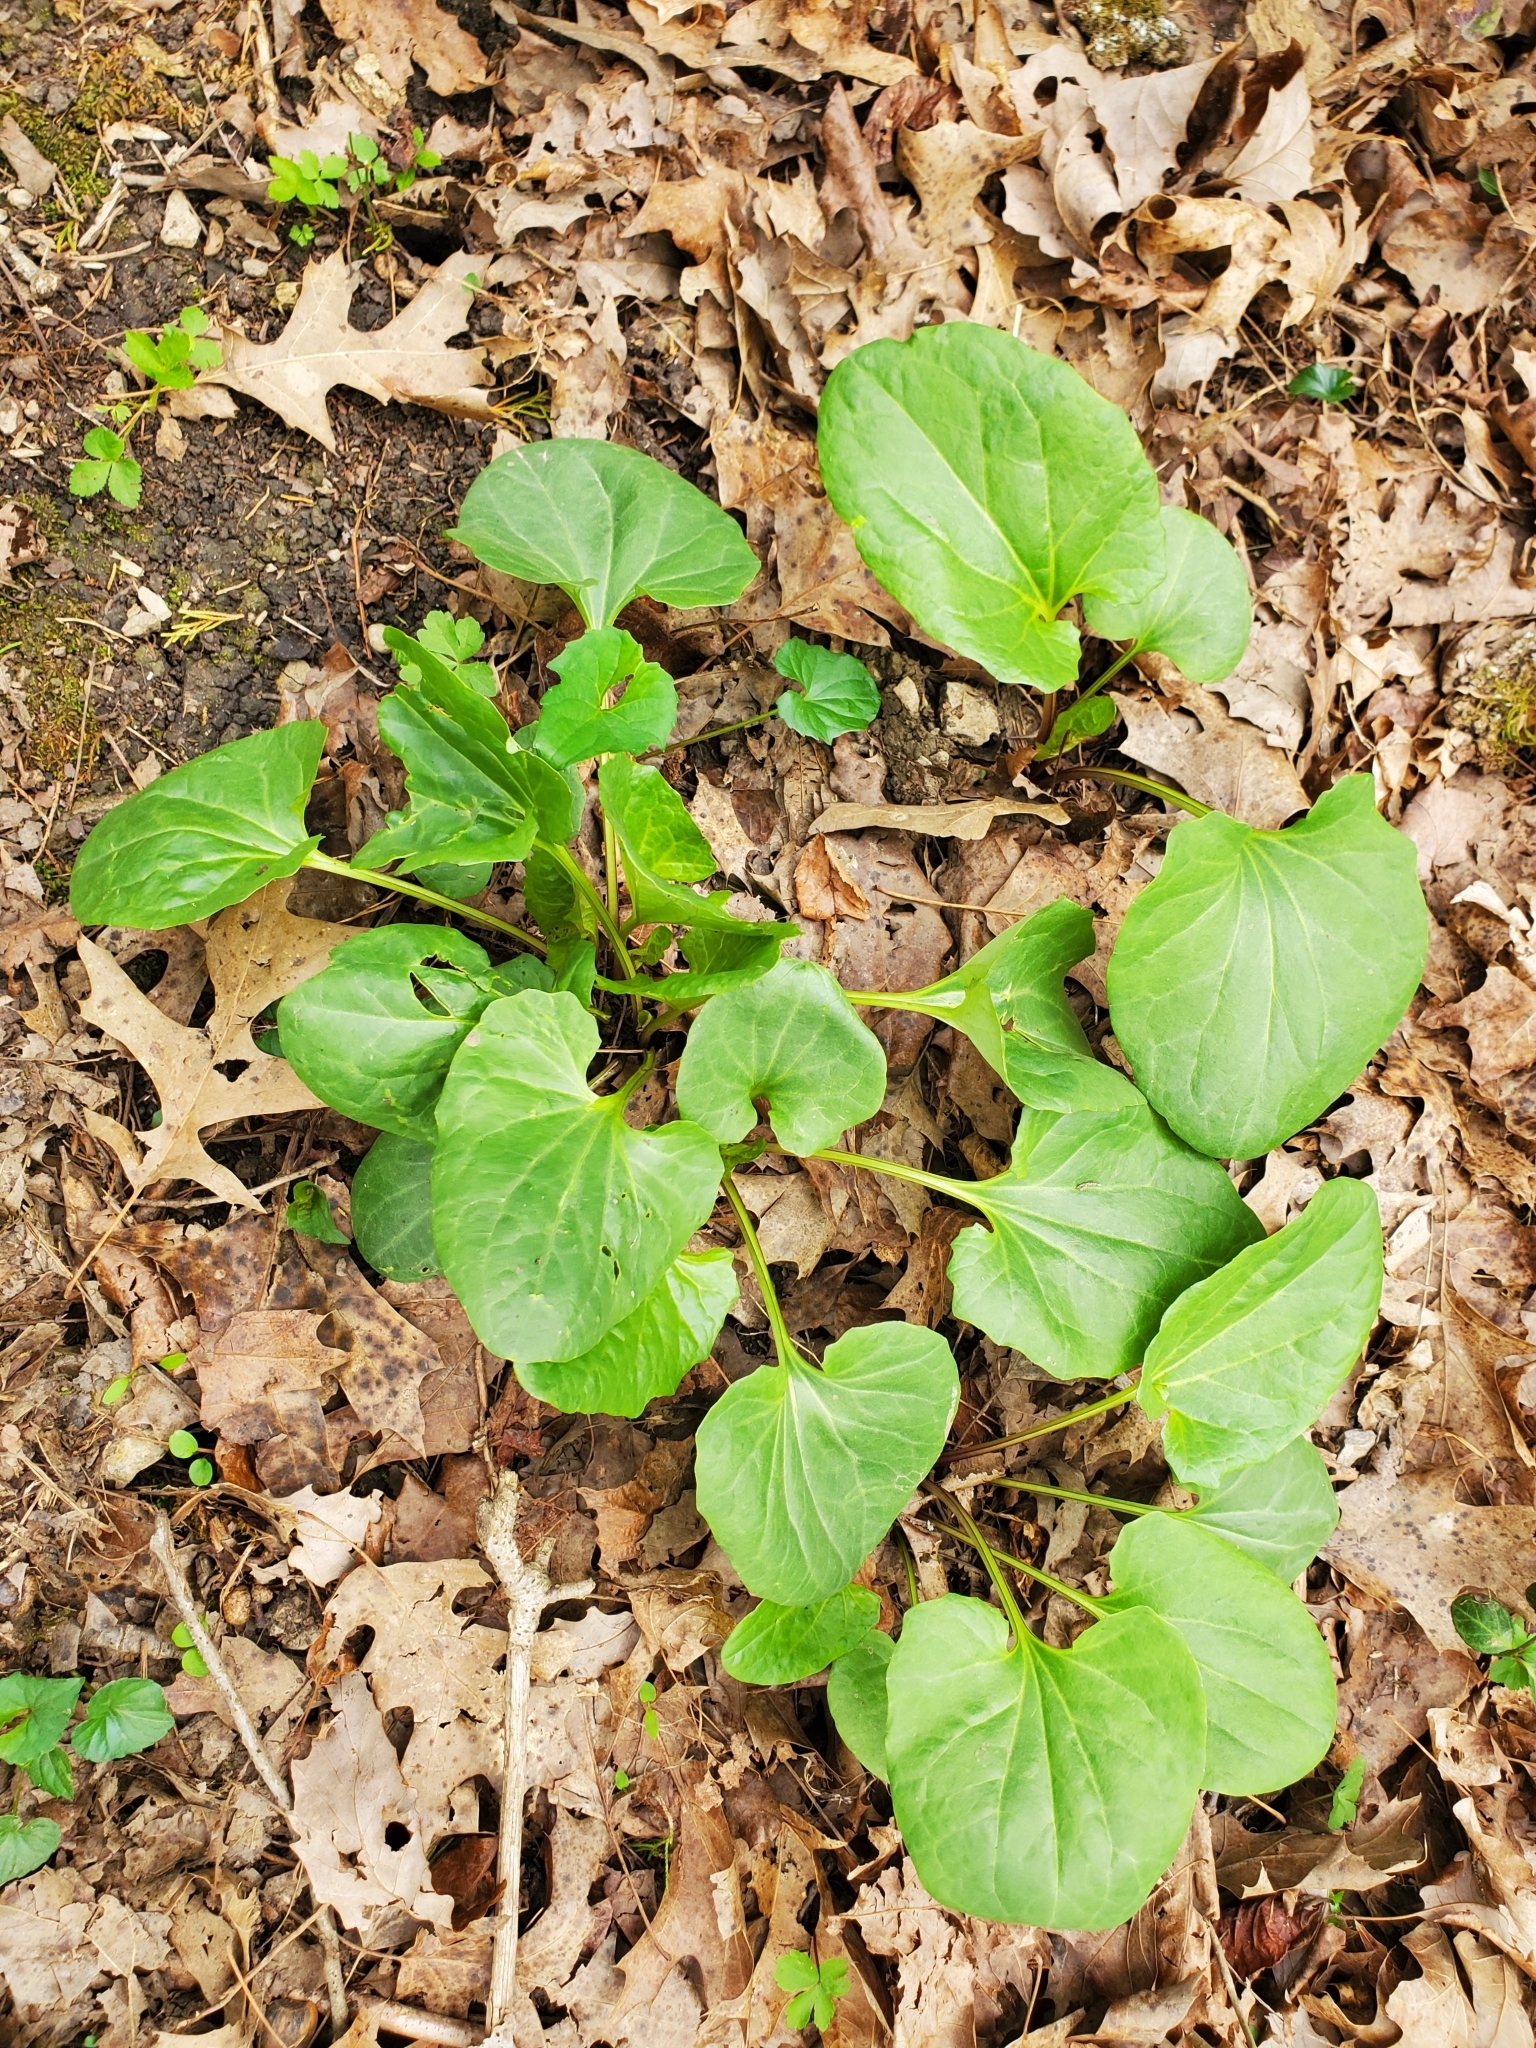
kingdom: Plantae
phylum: Tracheophyta
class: Magnoliopsida
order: Asterales
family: Asteraceae
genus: Arnoglossum
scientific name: Arnoglossum atriplicifolium
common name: Pale indian-plantain
